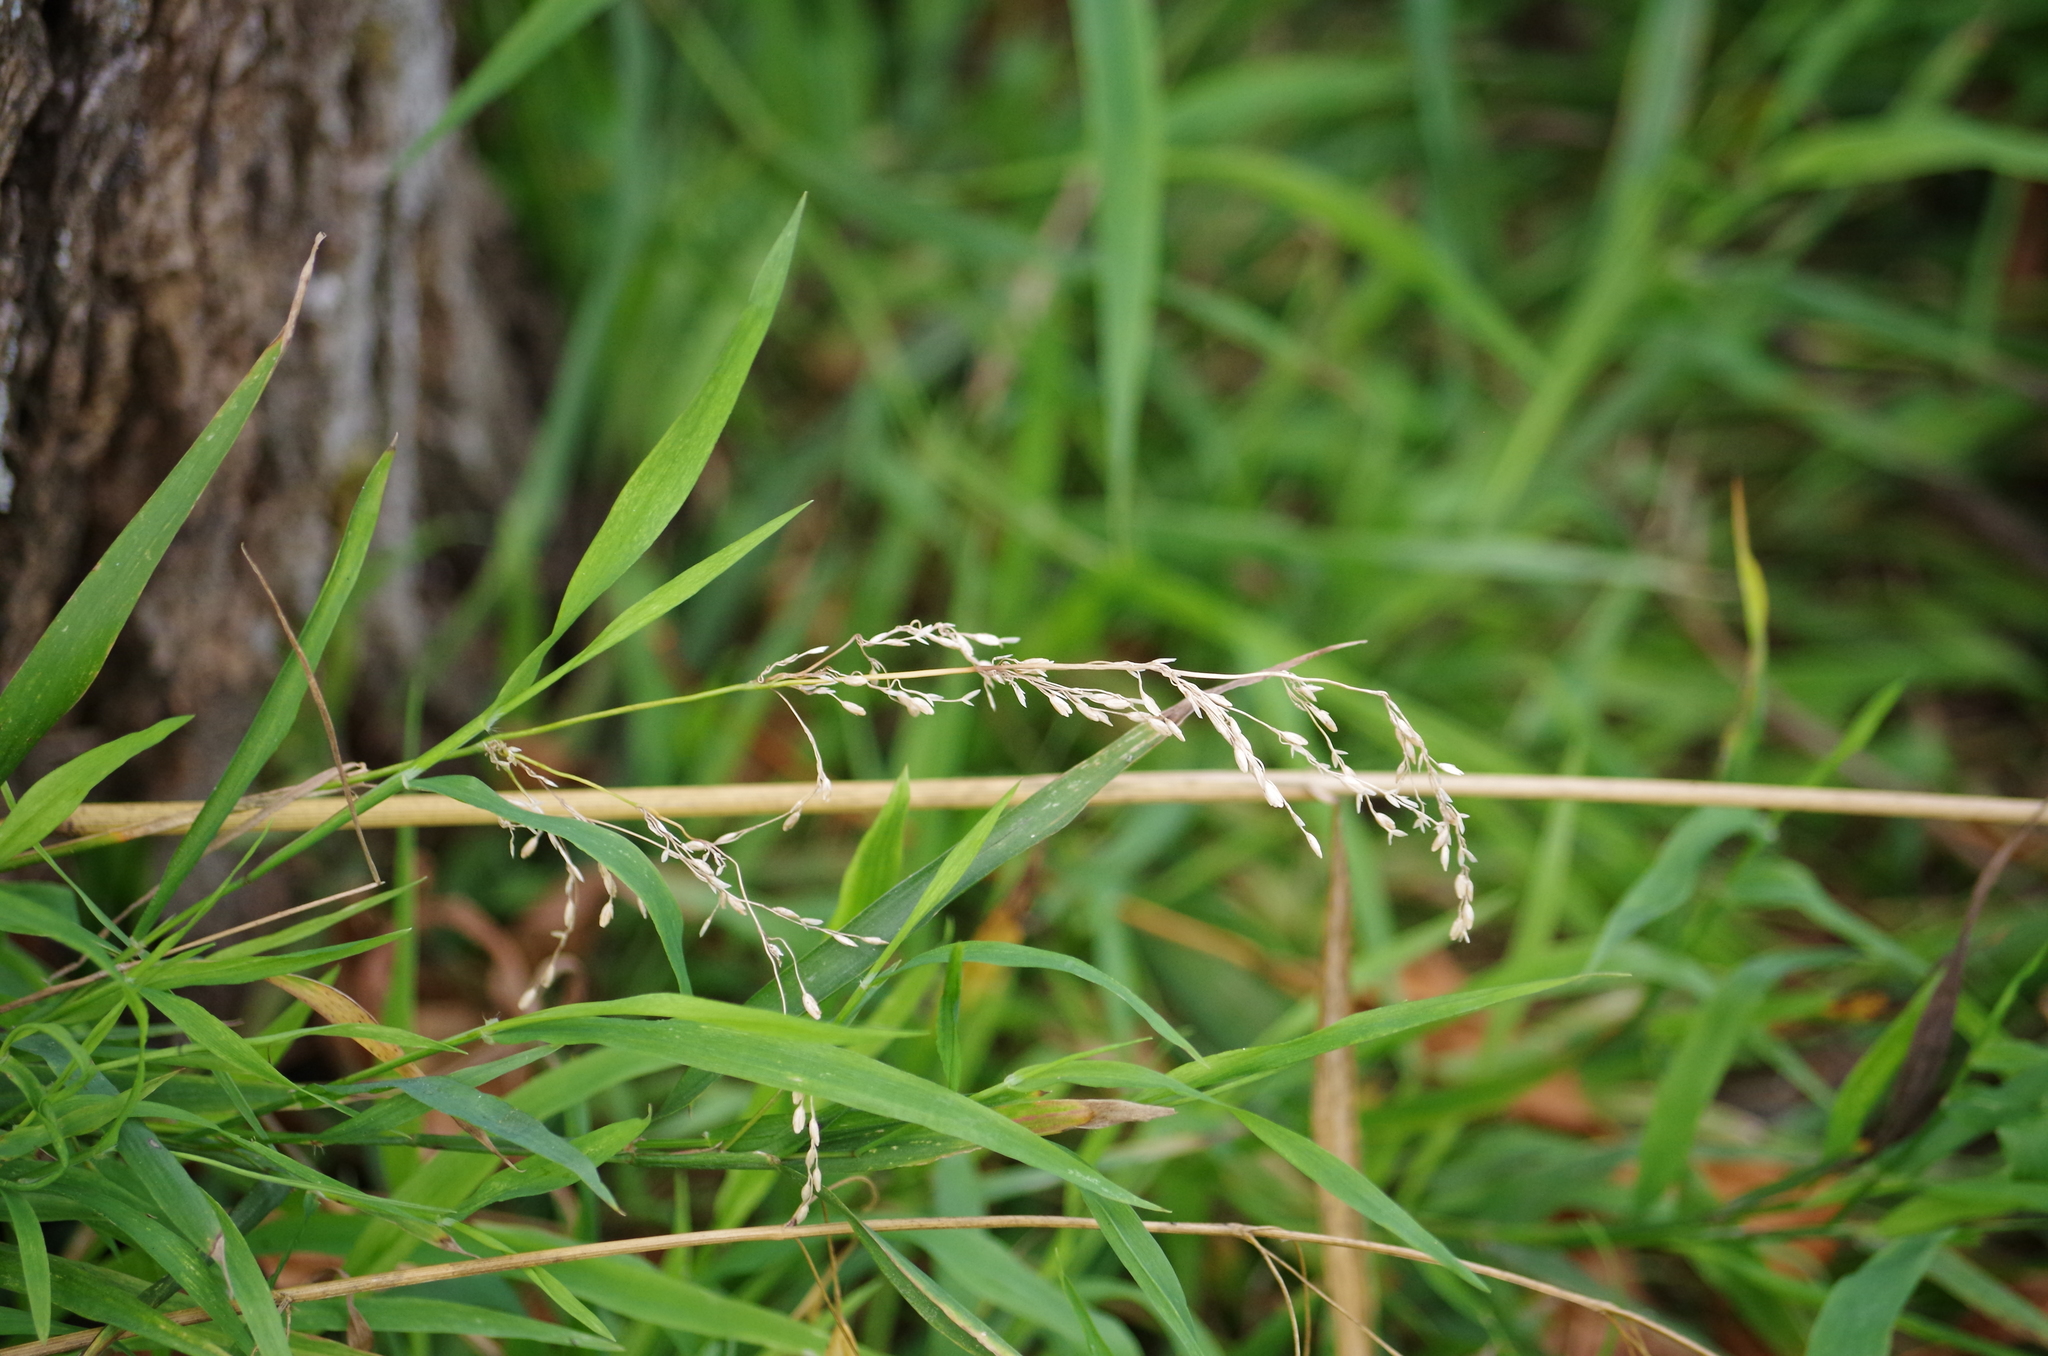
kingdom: Plantae
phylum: Tracheophyta
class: Liliopsida
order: Poales
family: Poaceae
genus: Agrostis
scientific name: Agrostis stolonifera
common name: Creeping bentgrass
